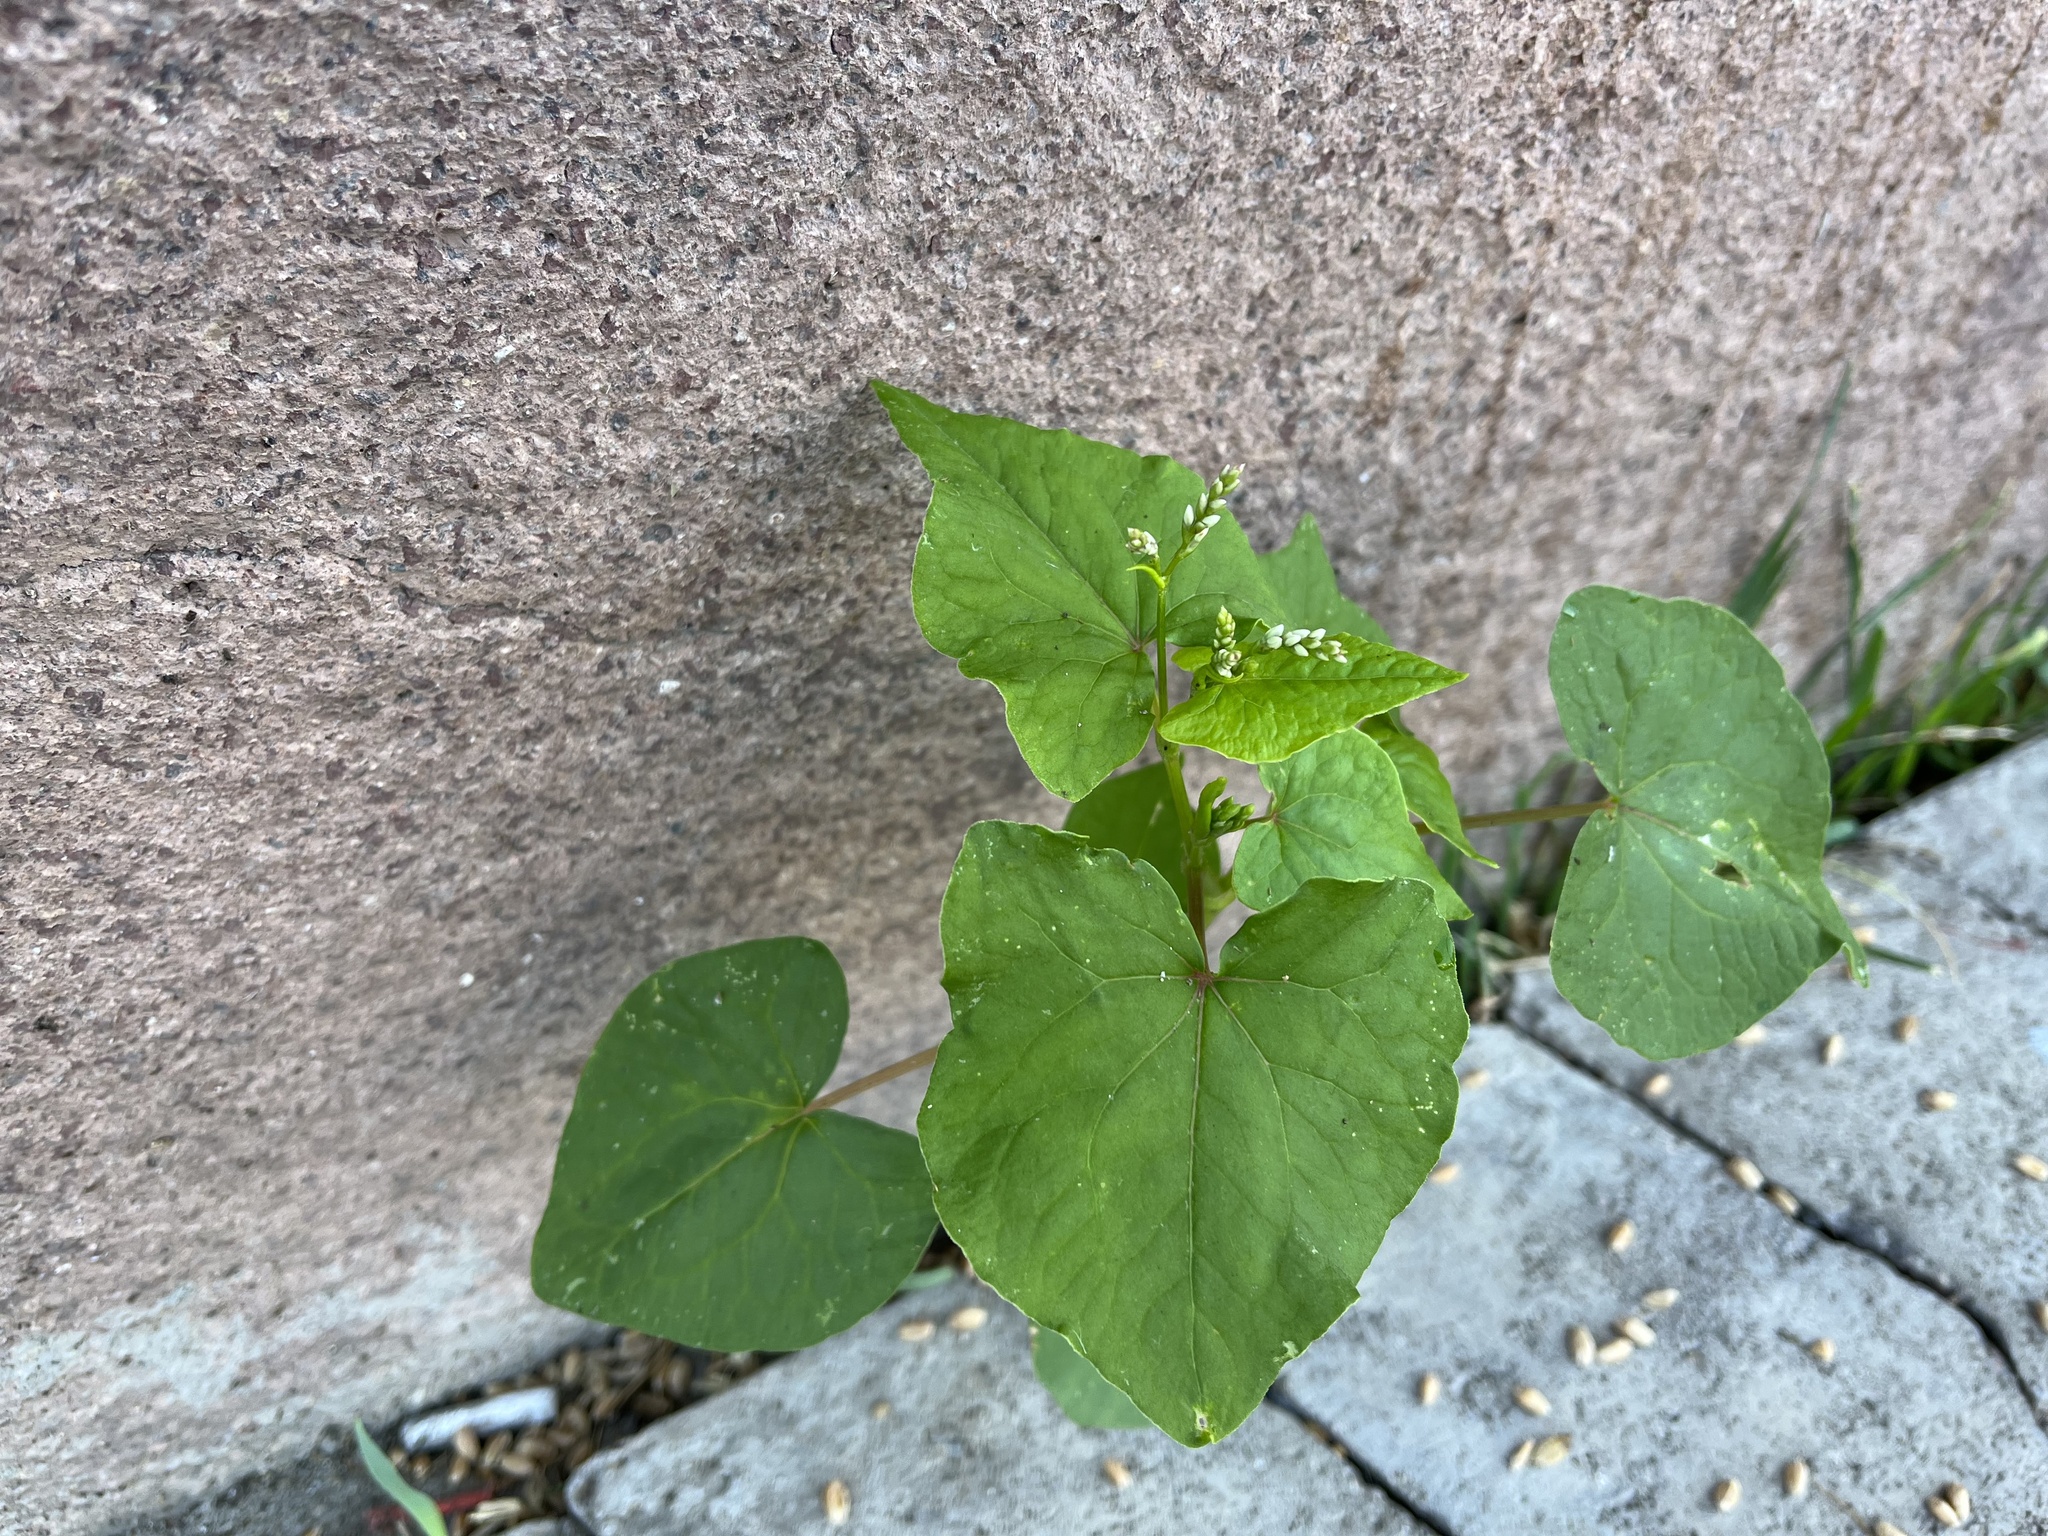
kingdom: Plantae
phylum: Tracheophyta
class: Magnoliopsida
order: Caryophyllales
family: Polygonaceae
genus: Fagopyrum
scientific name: Fagopyrum esculentum
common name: Buckwheat
